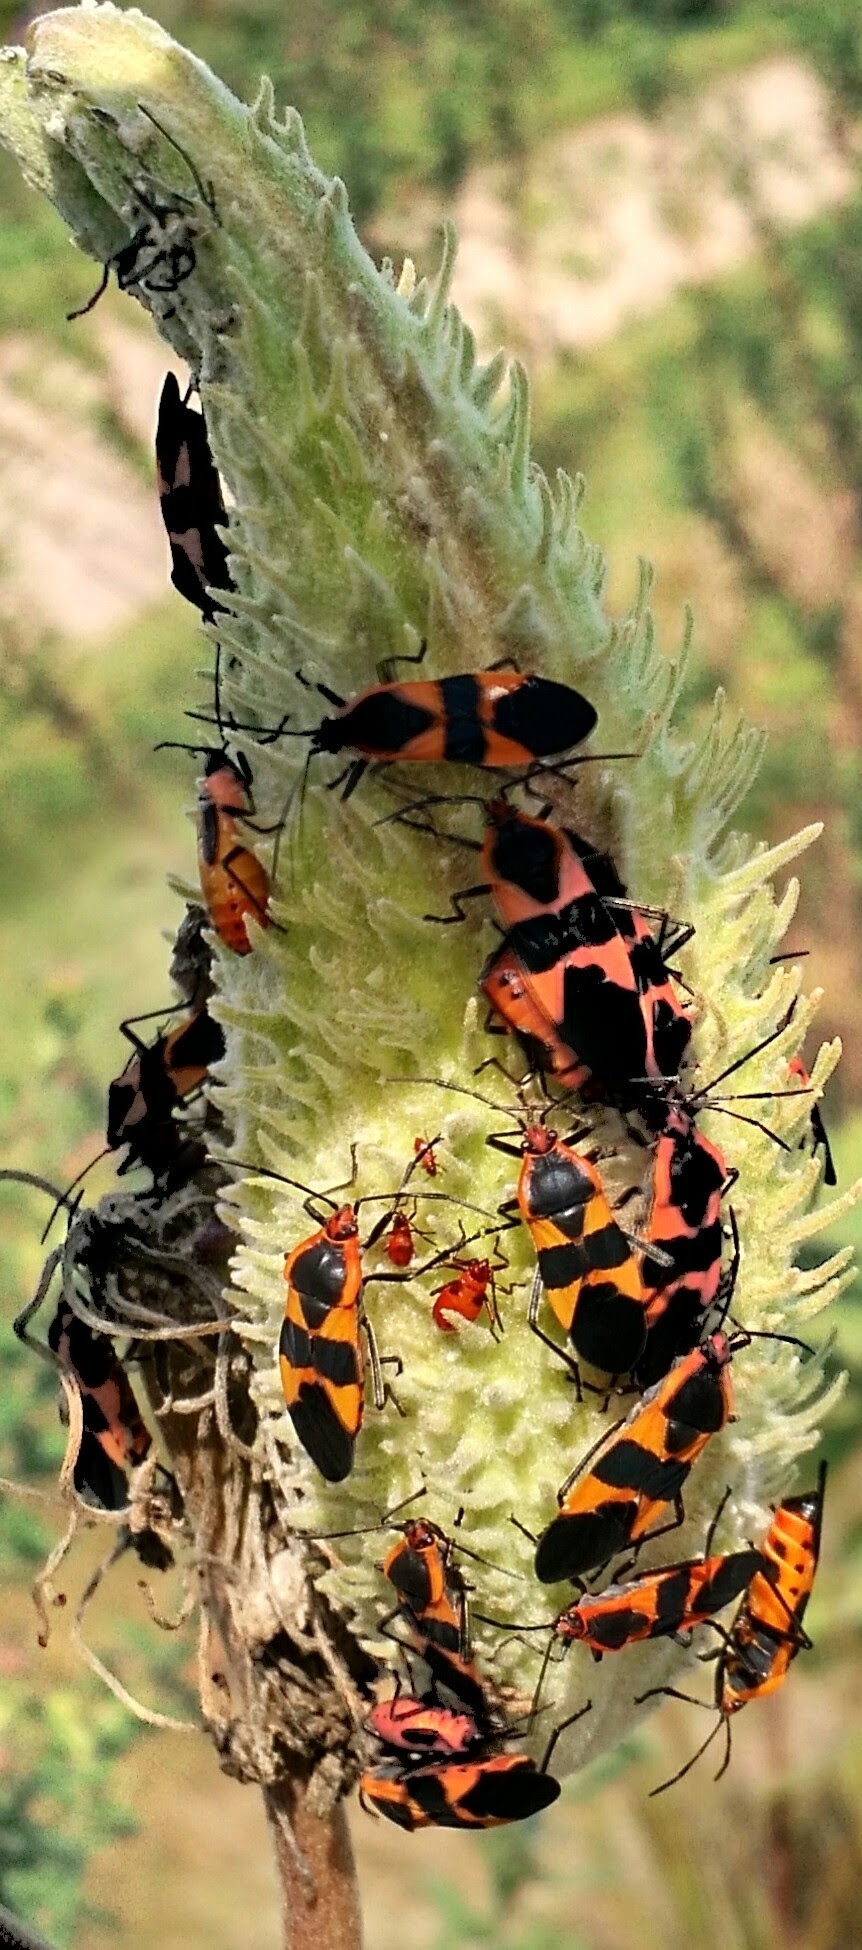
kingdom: Animalia
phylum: Arthropoda
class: Insecta
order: Hemiptera
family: Lygaeidae
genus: Oncopeltus
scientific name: Oncopeltus fasciatus
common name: Large milkweed bug
